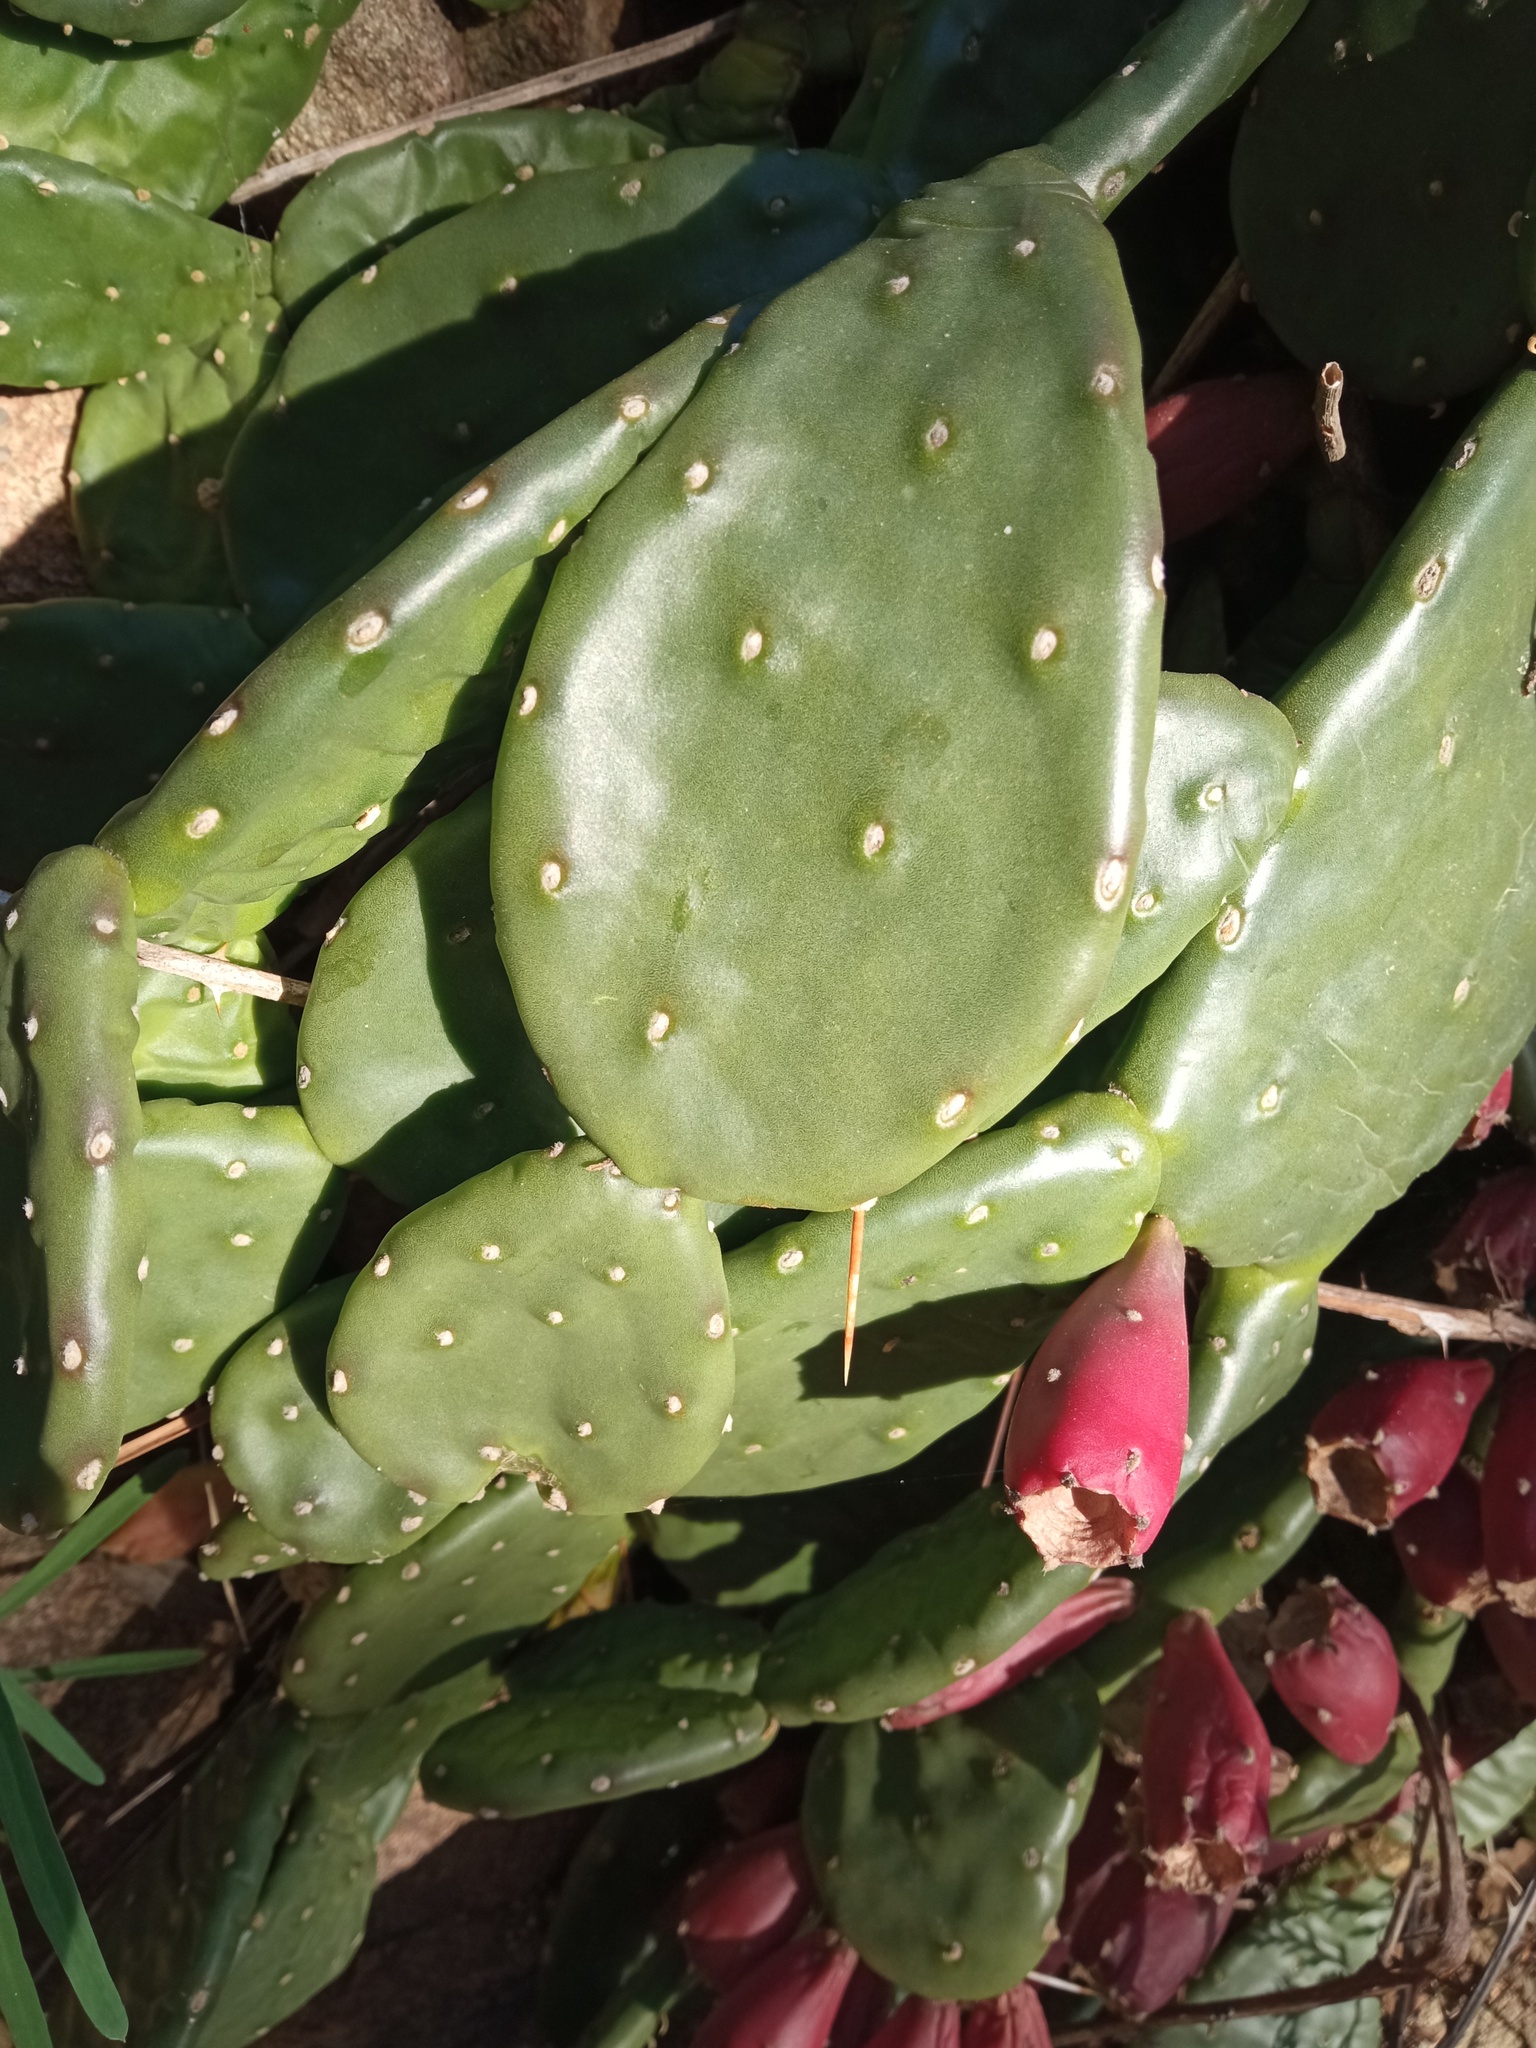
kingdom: Plantae
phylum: Tracheophyta
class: Magnoliopsida
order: Caryophyllales
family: Cactaceae
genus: Opuntia
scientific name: Opuntia humifusa
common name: Eastern prickly-pear
